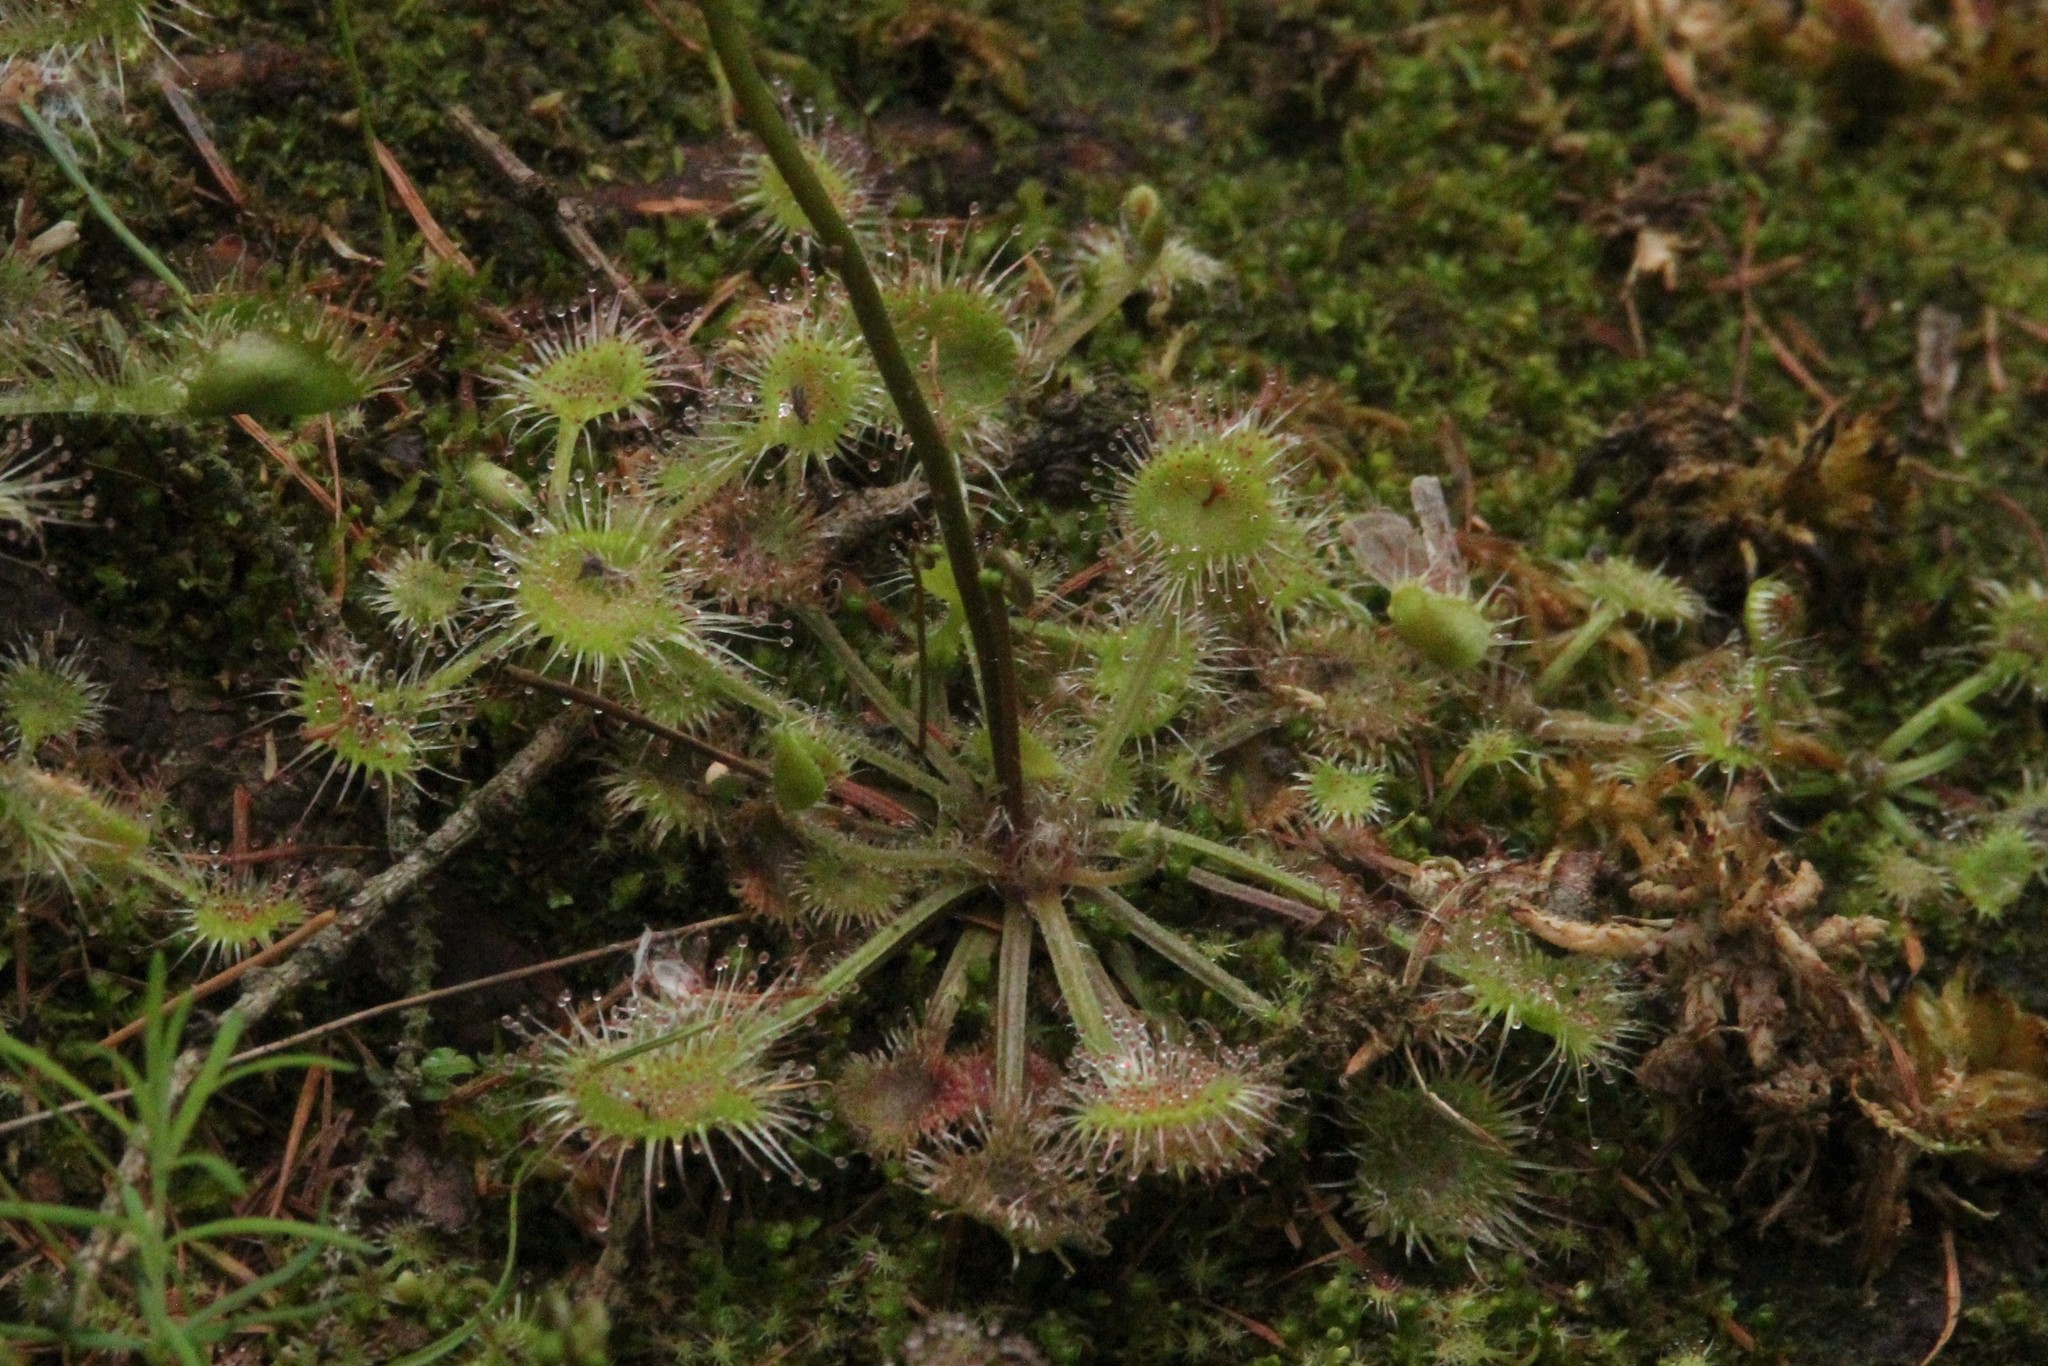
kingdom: Plantae
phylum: Tracheophyta
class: Magnoliopsida
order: Caryophyllales
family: Droseraceae
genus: Drosera
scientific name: Drosera rotundifolia
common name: Round-leaved sundew
